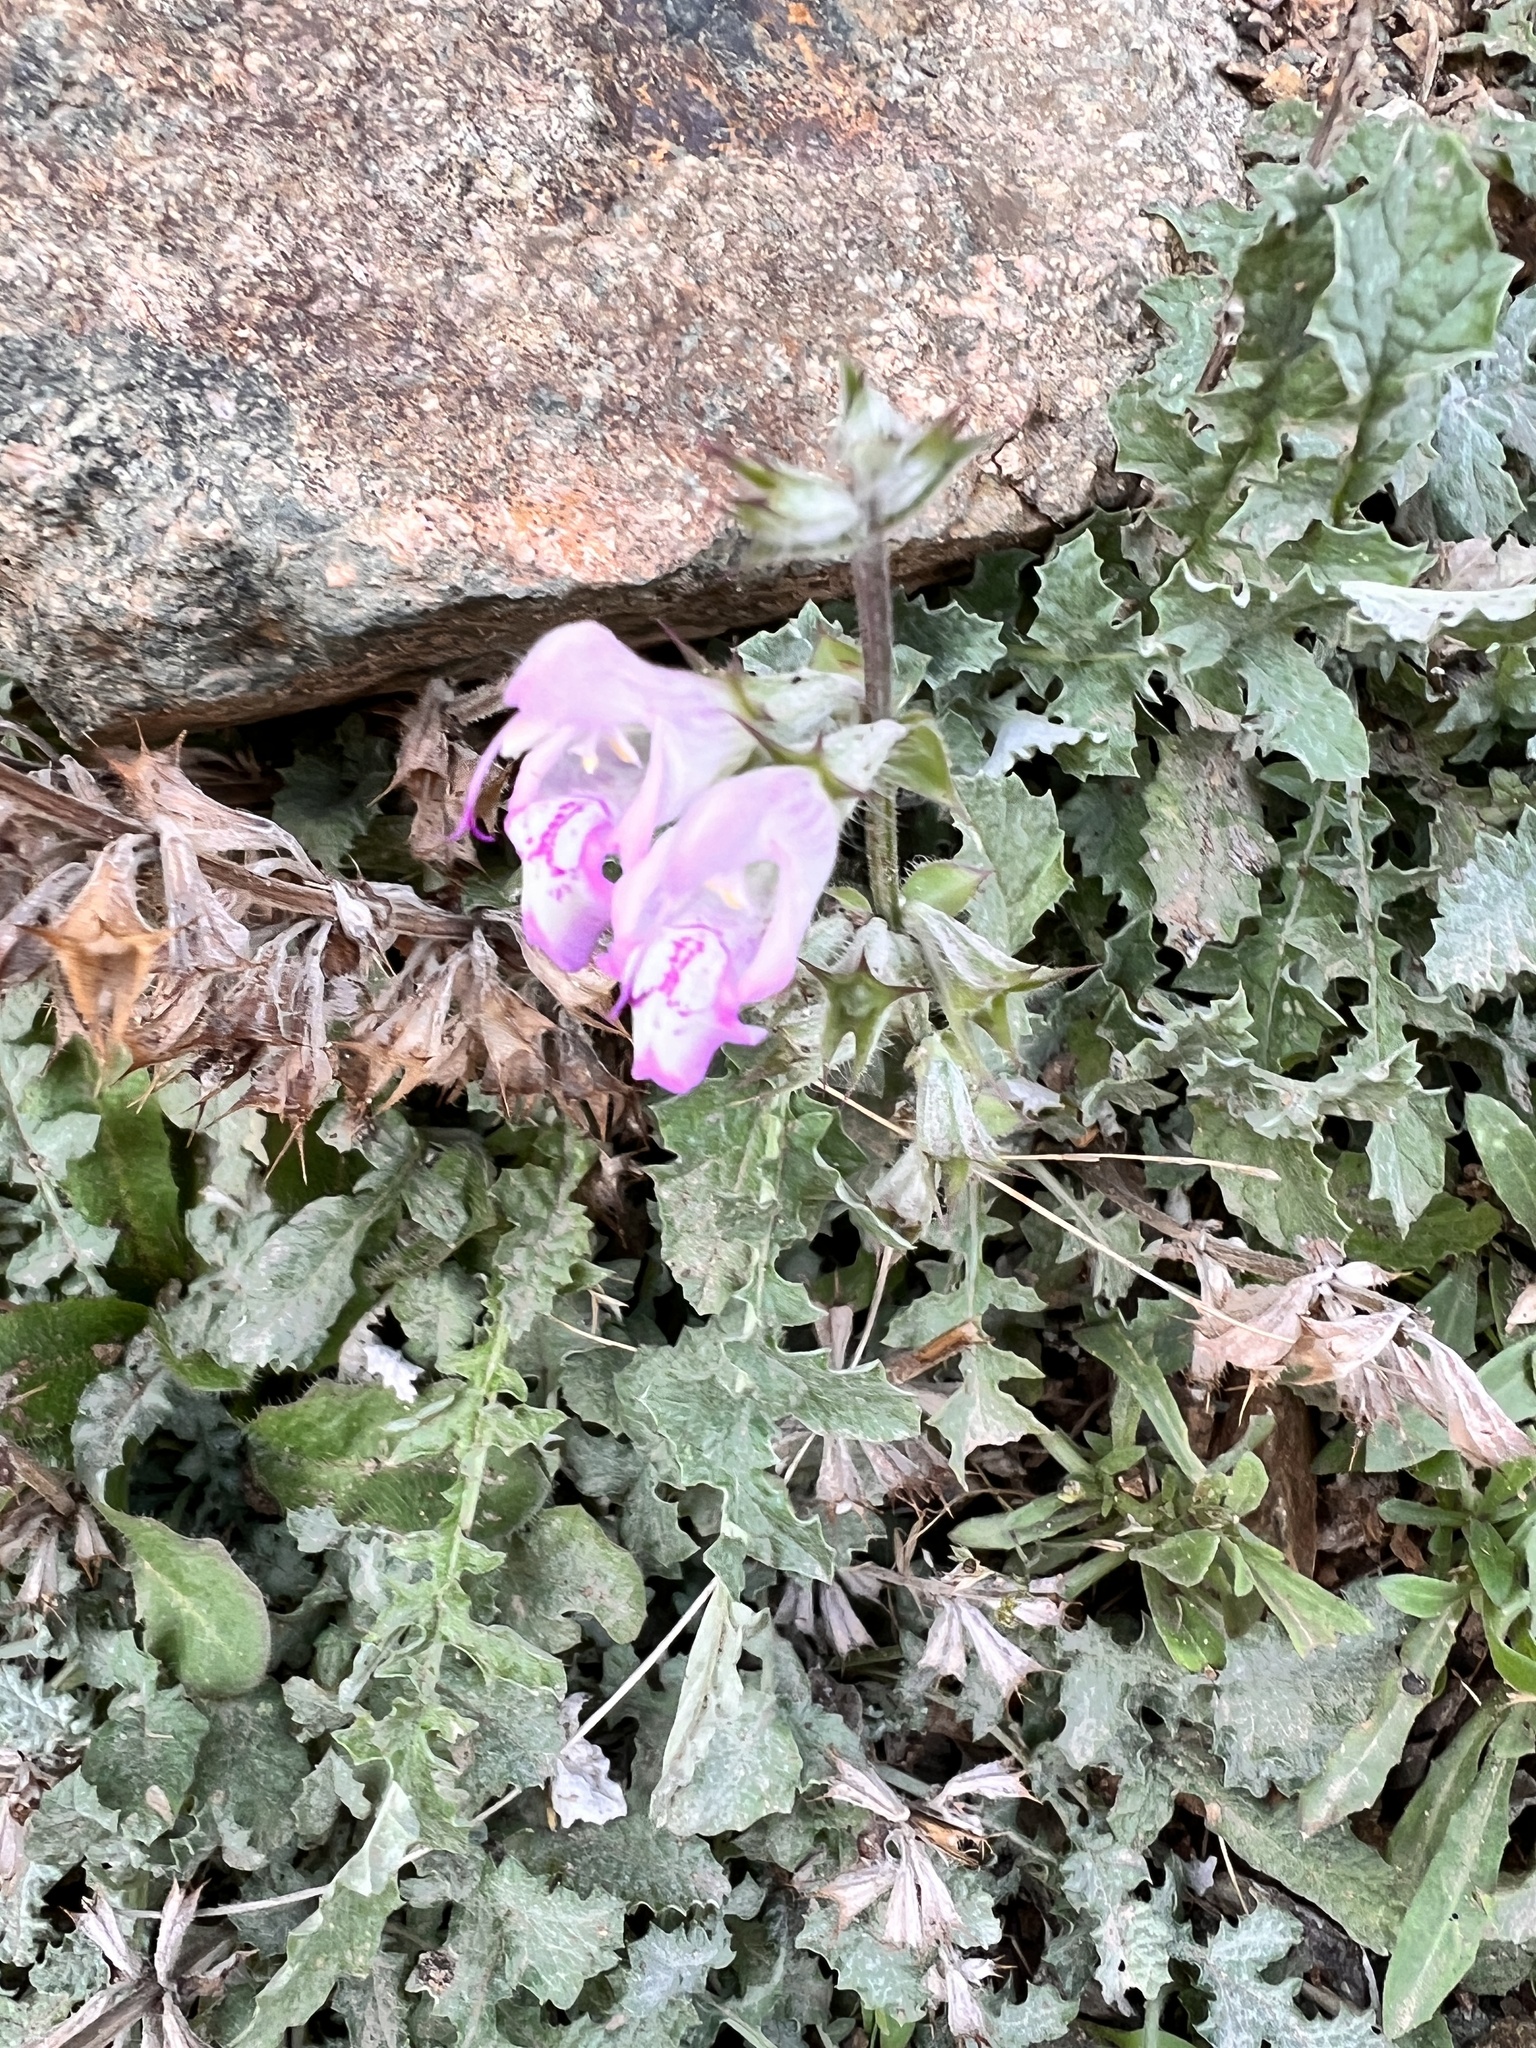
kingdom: Plantae
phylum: Tracheophyta
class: Magnoliopsida
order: Lamiales
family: Lamiaceae
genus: Salvia
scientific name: Salvia taraxacifolia
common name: Wild sage
